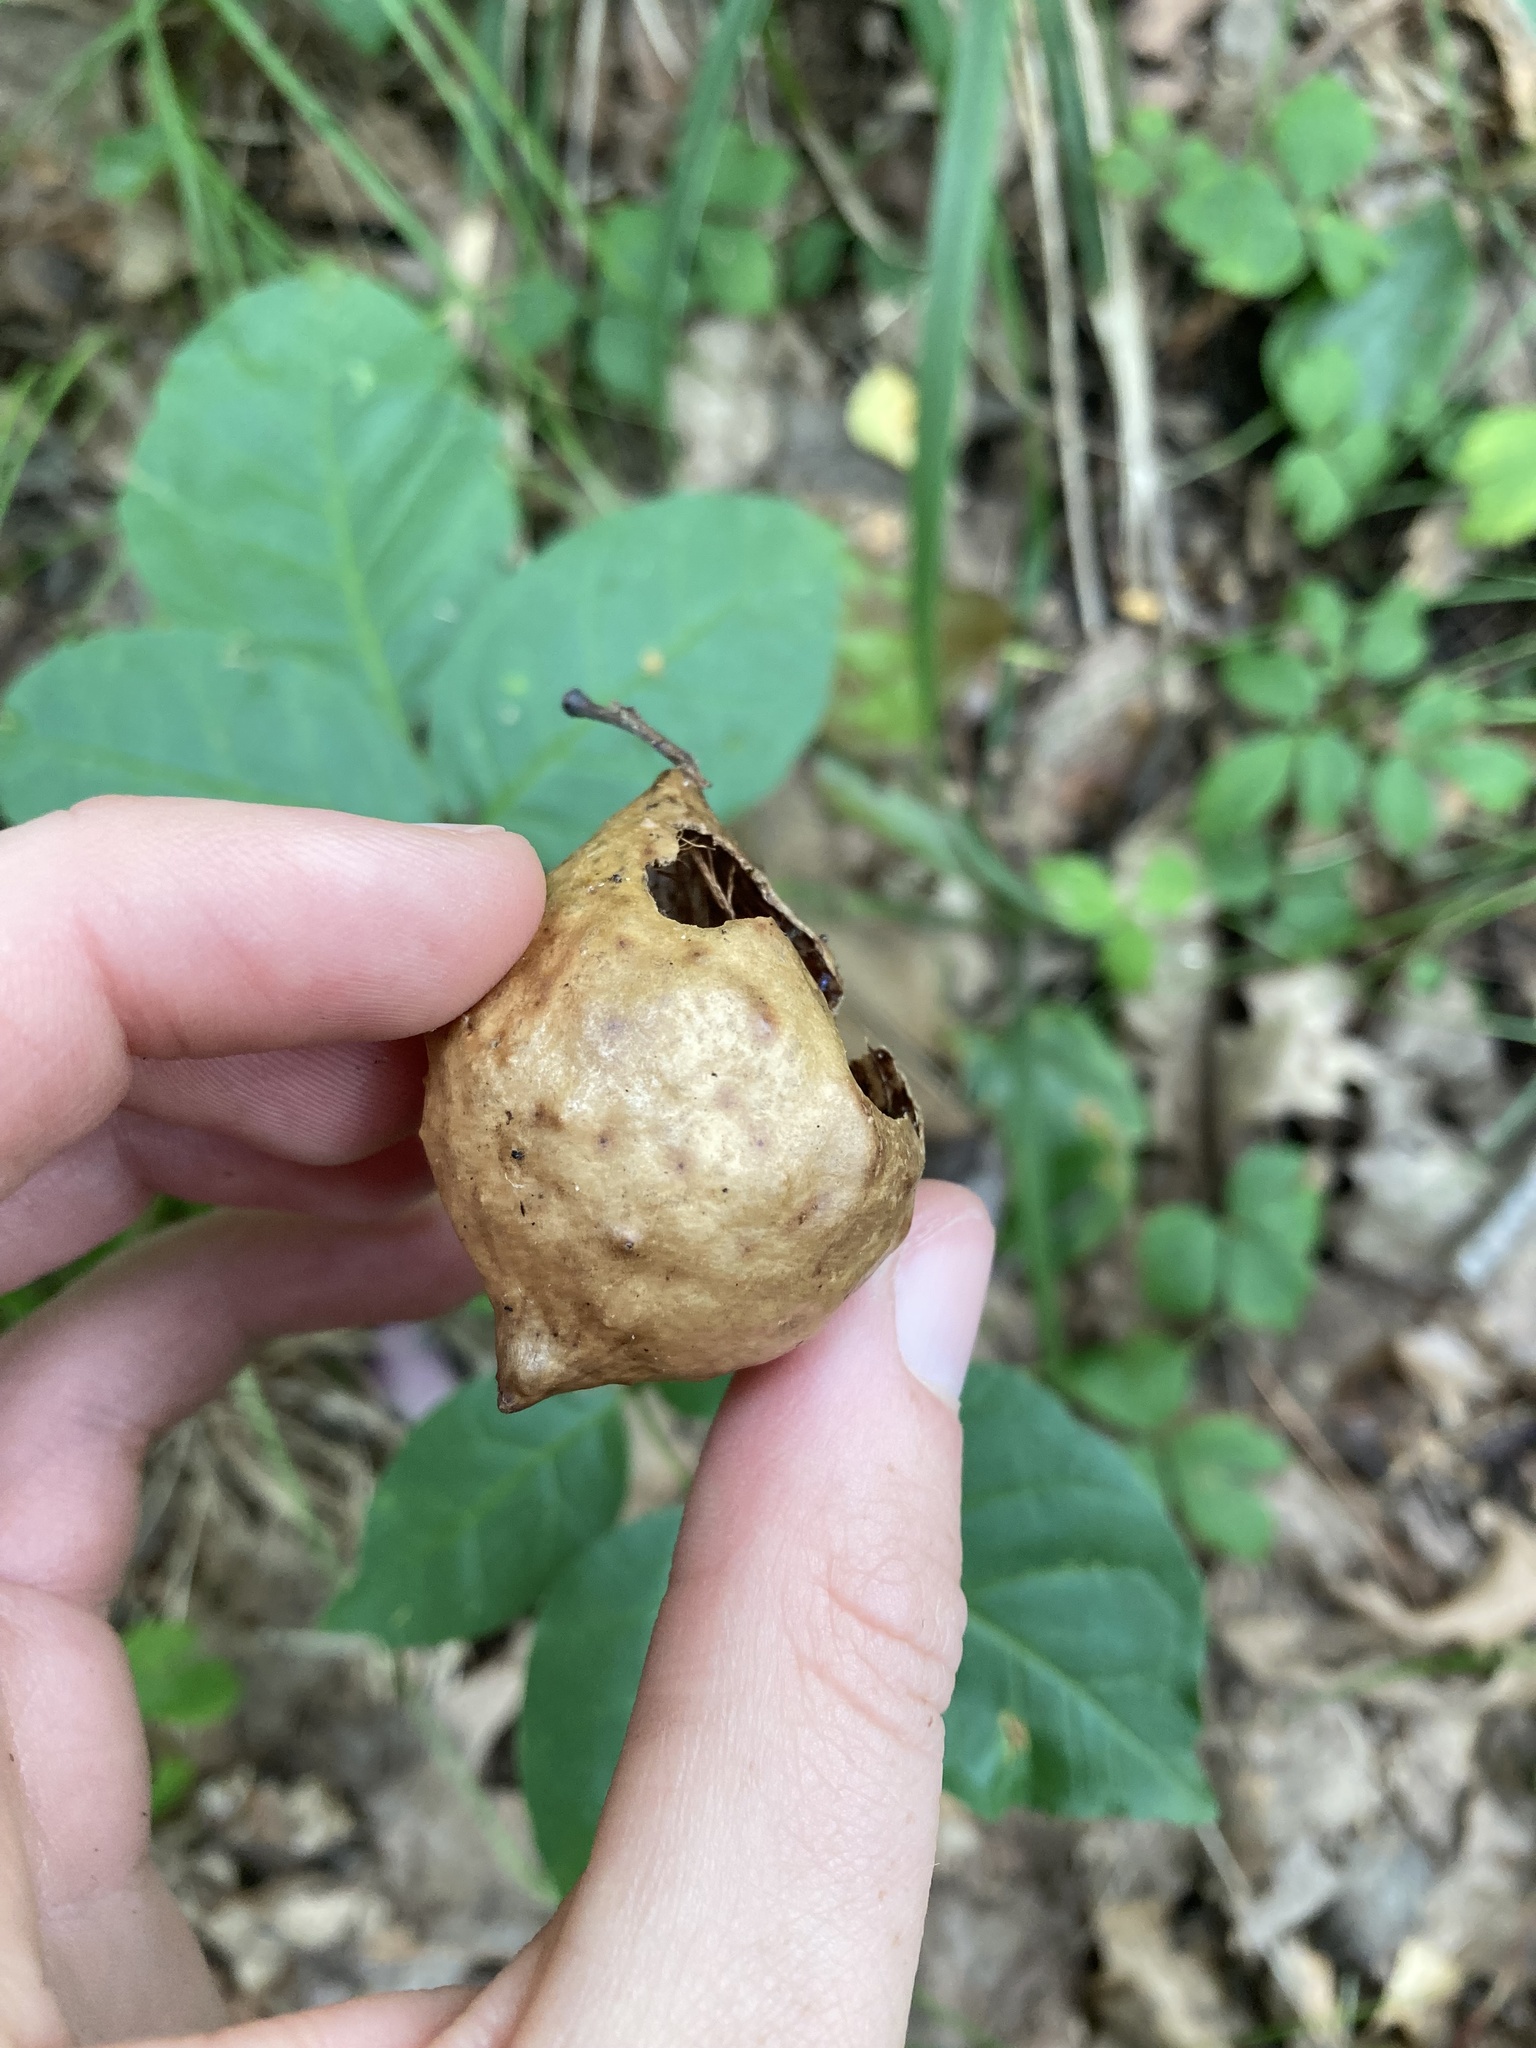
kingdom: Animalia
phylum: Arthropoda
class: Insecta
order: Hymenoptera
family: Cynipidae
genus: Amphibolips
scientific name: Amphibolips
